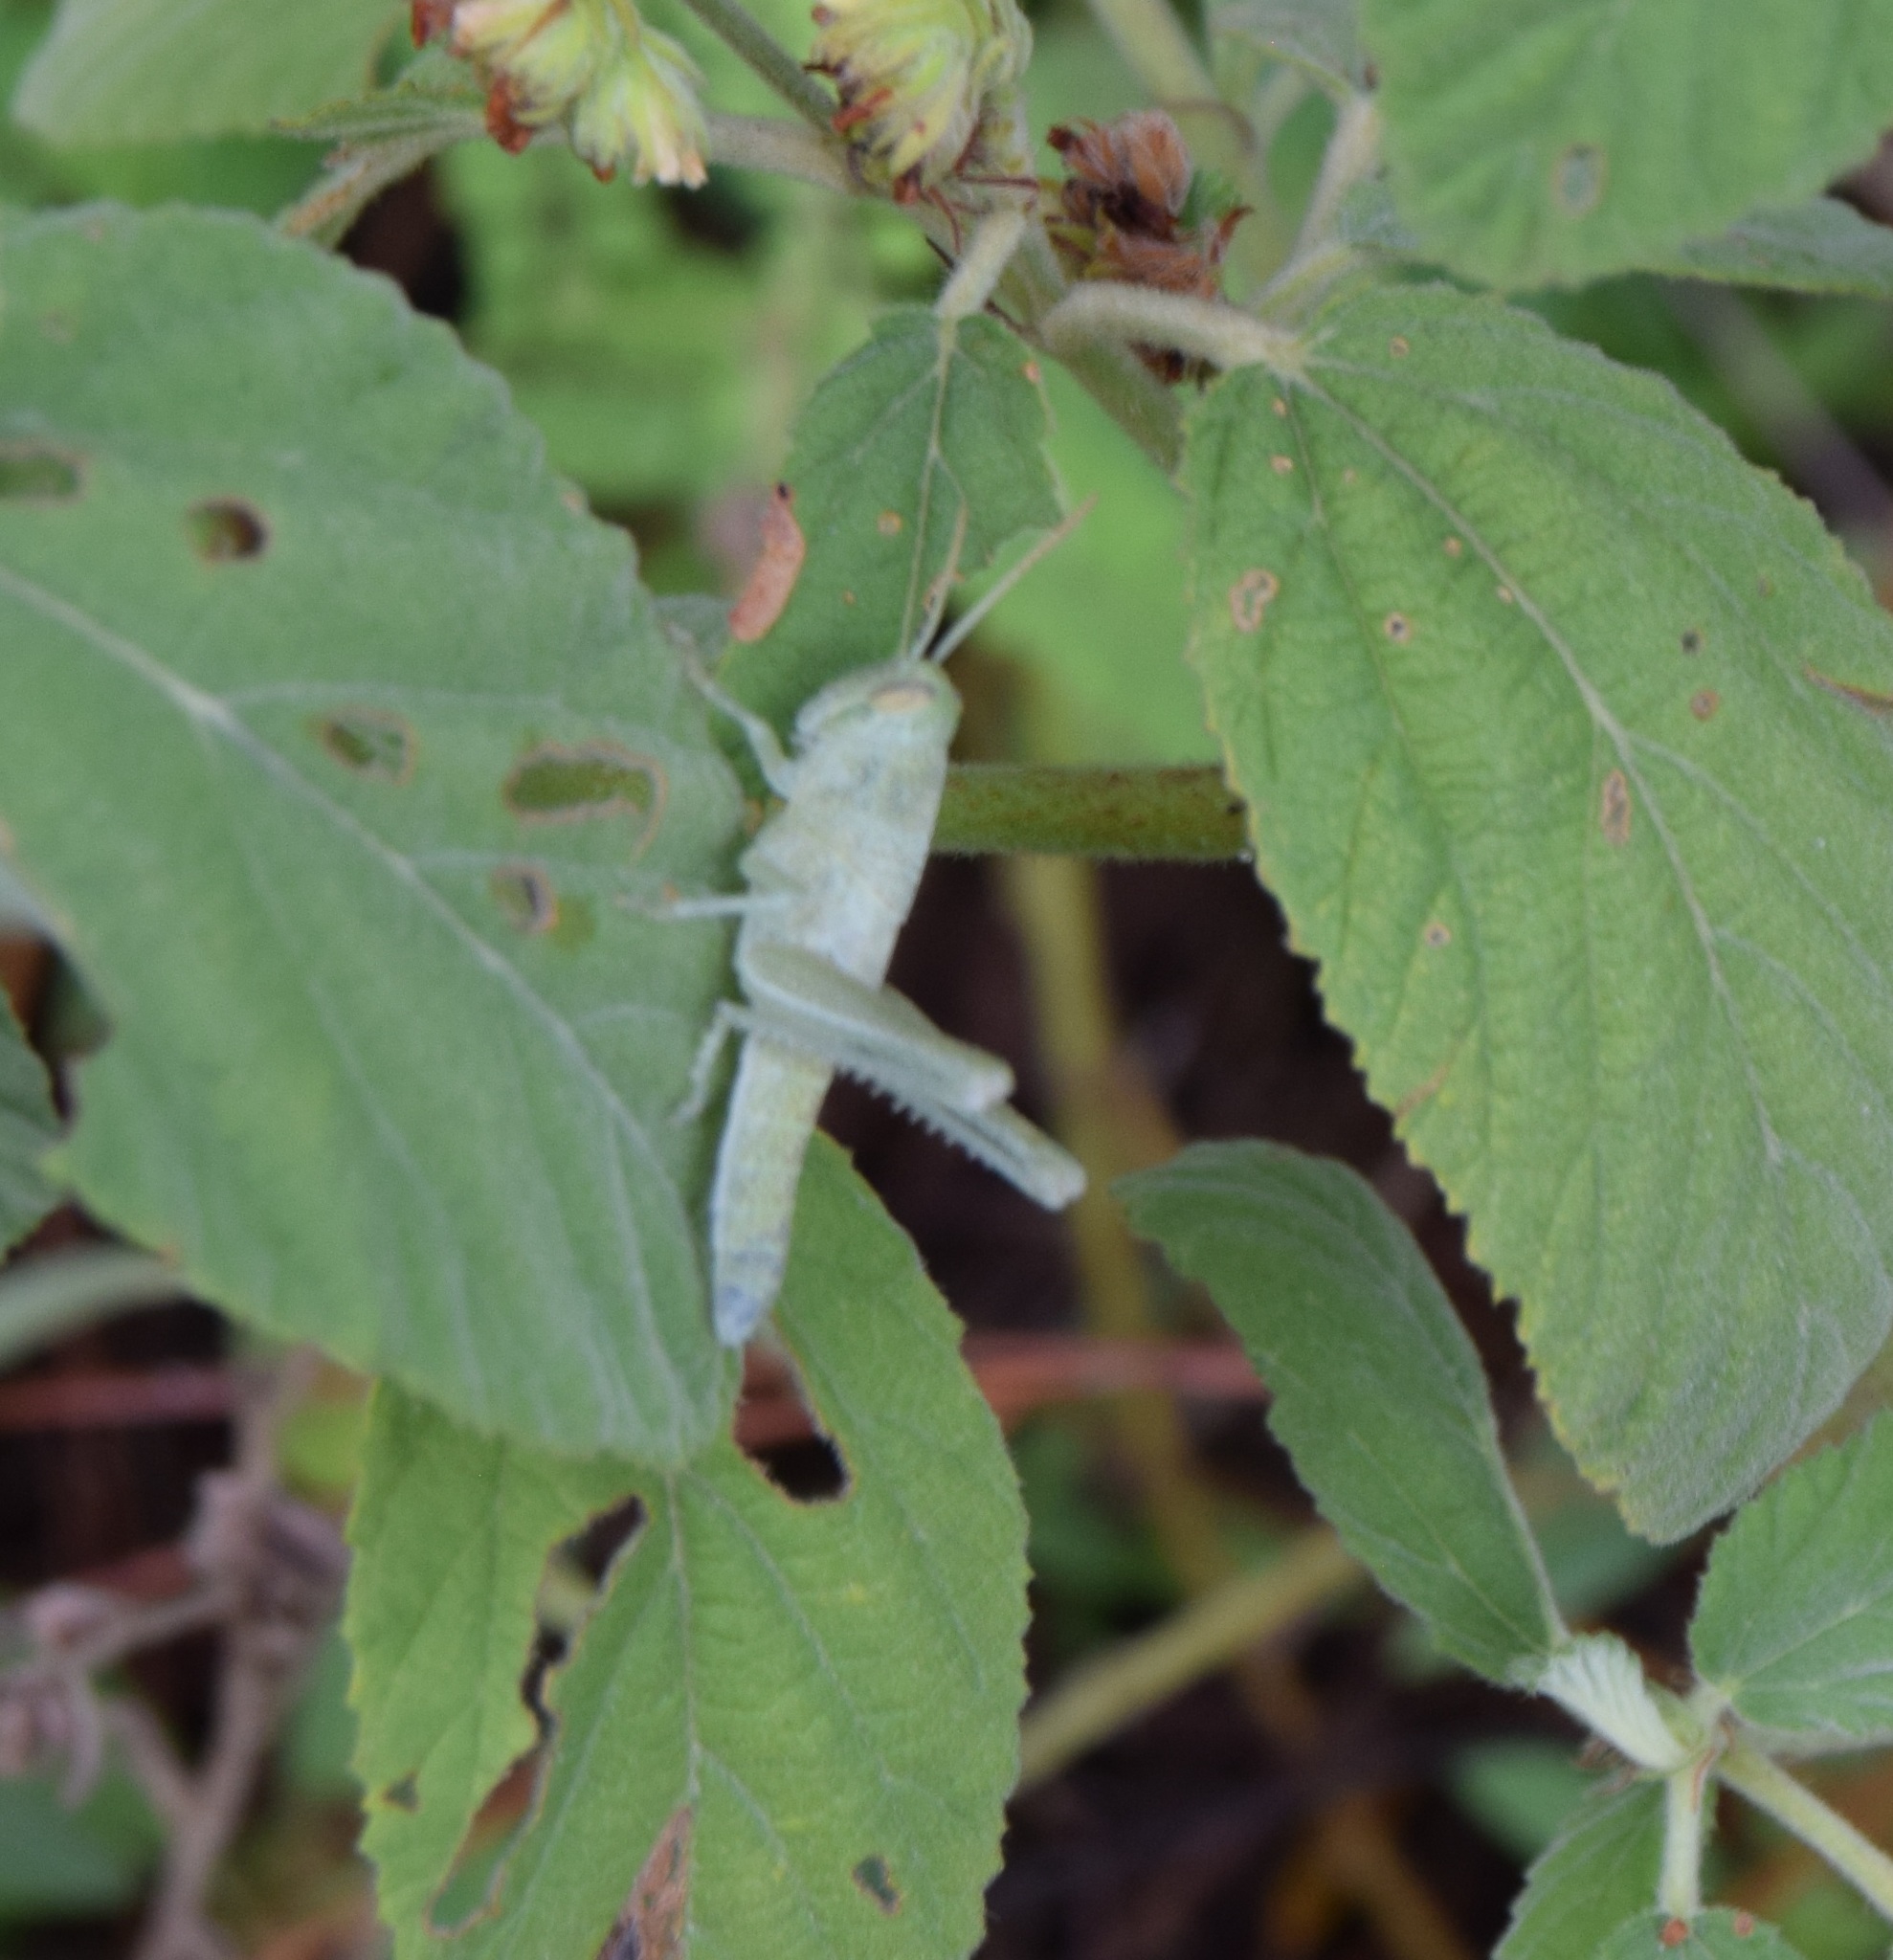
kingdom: Animalia
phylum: Arthropoda
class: Insecta
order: Orthoptera
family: Acrididae
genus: Schistocerca
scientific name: Schistocerca serialis
